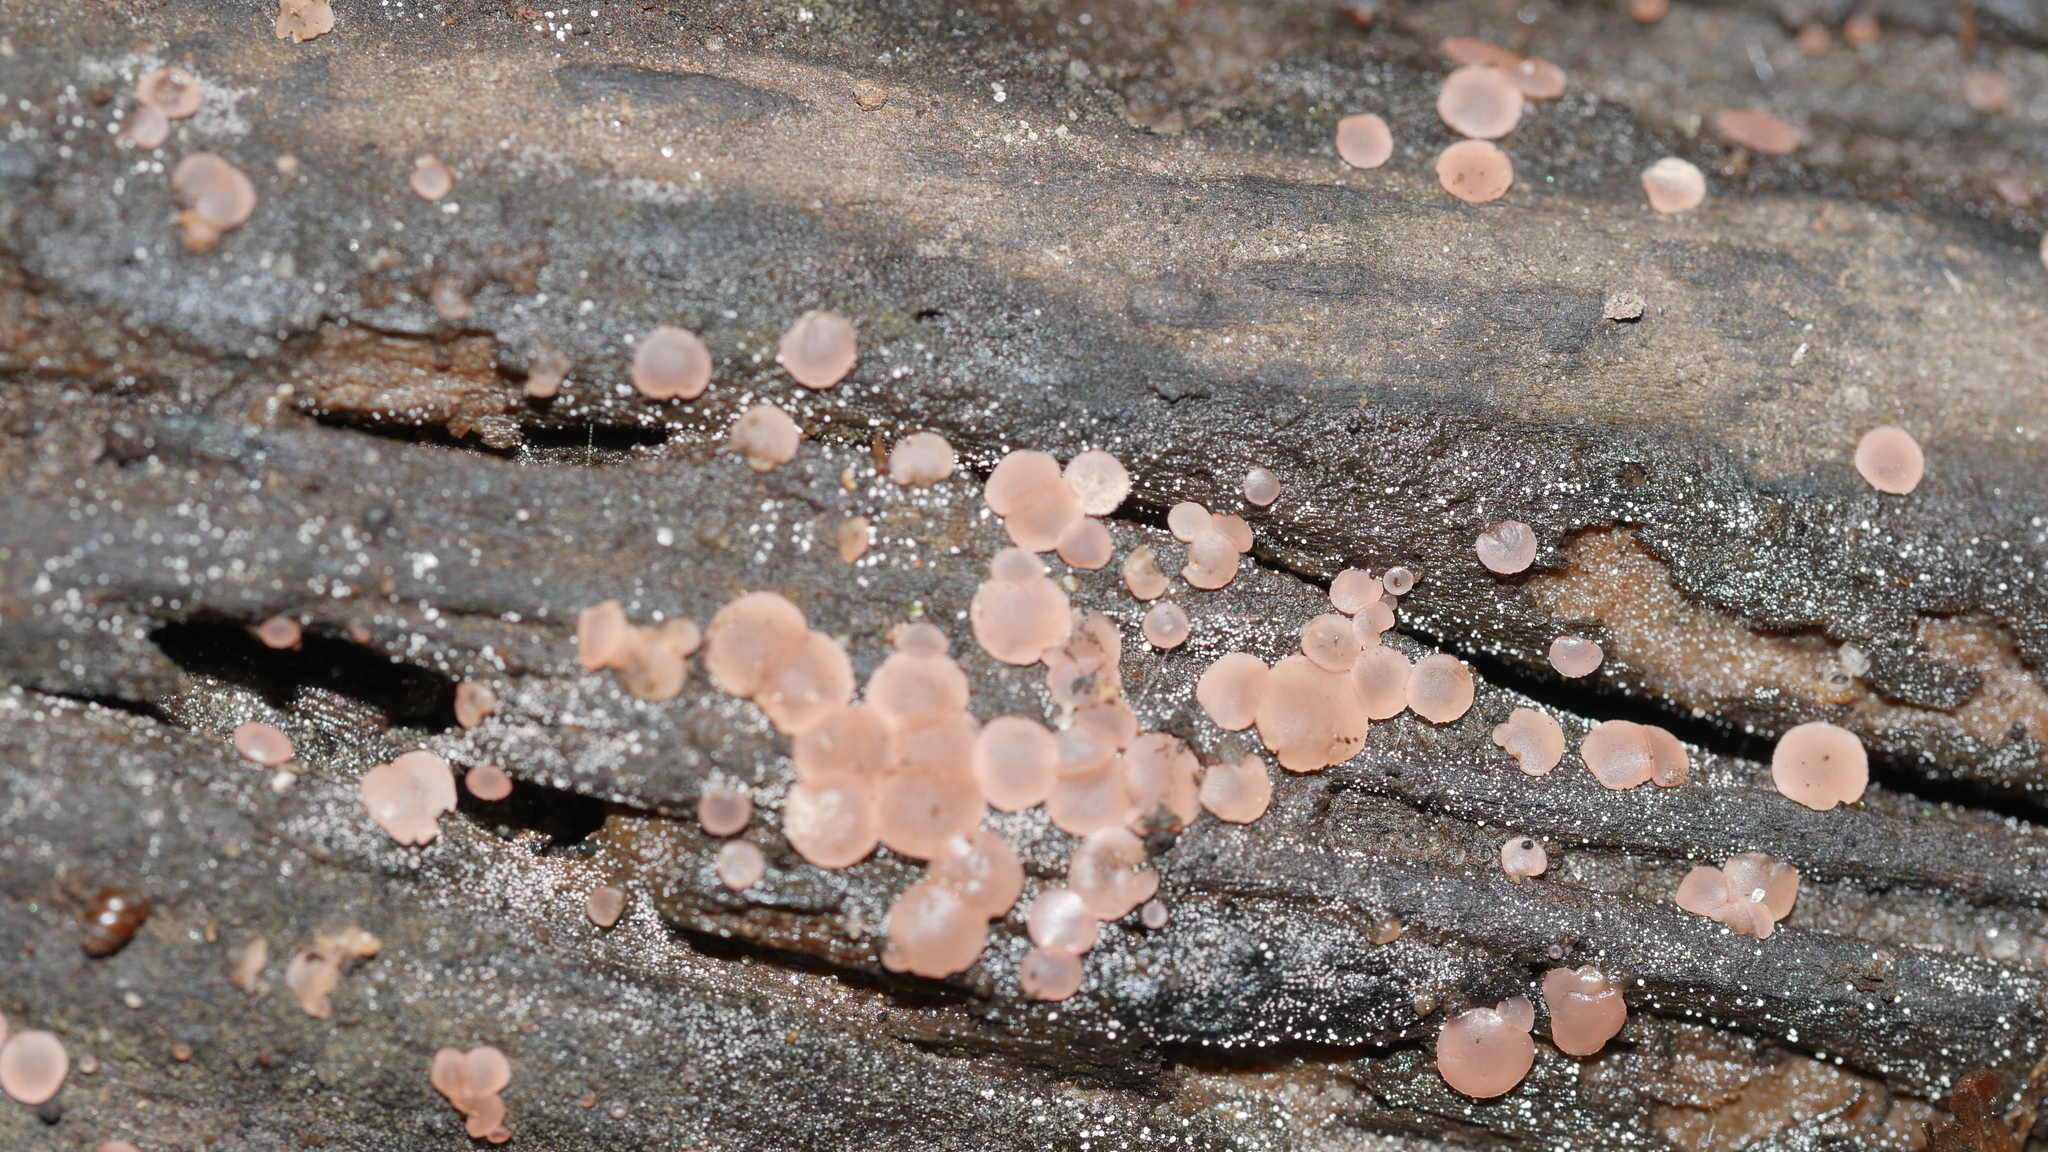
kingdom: Fungi
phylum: Ascomycota
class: Orbiliomycetes
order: Orbiliales
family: Orbiliaceae
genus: Orbilia
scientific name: Orbilia
